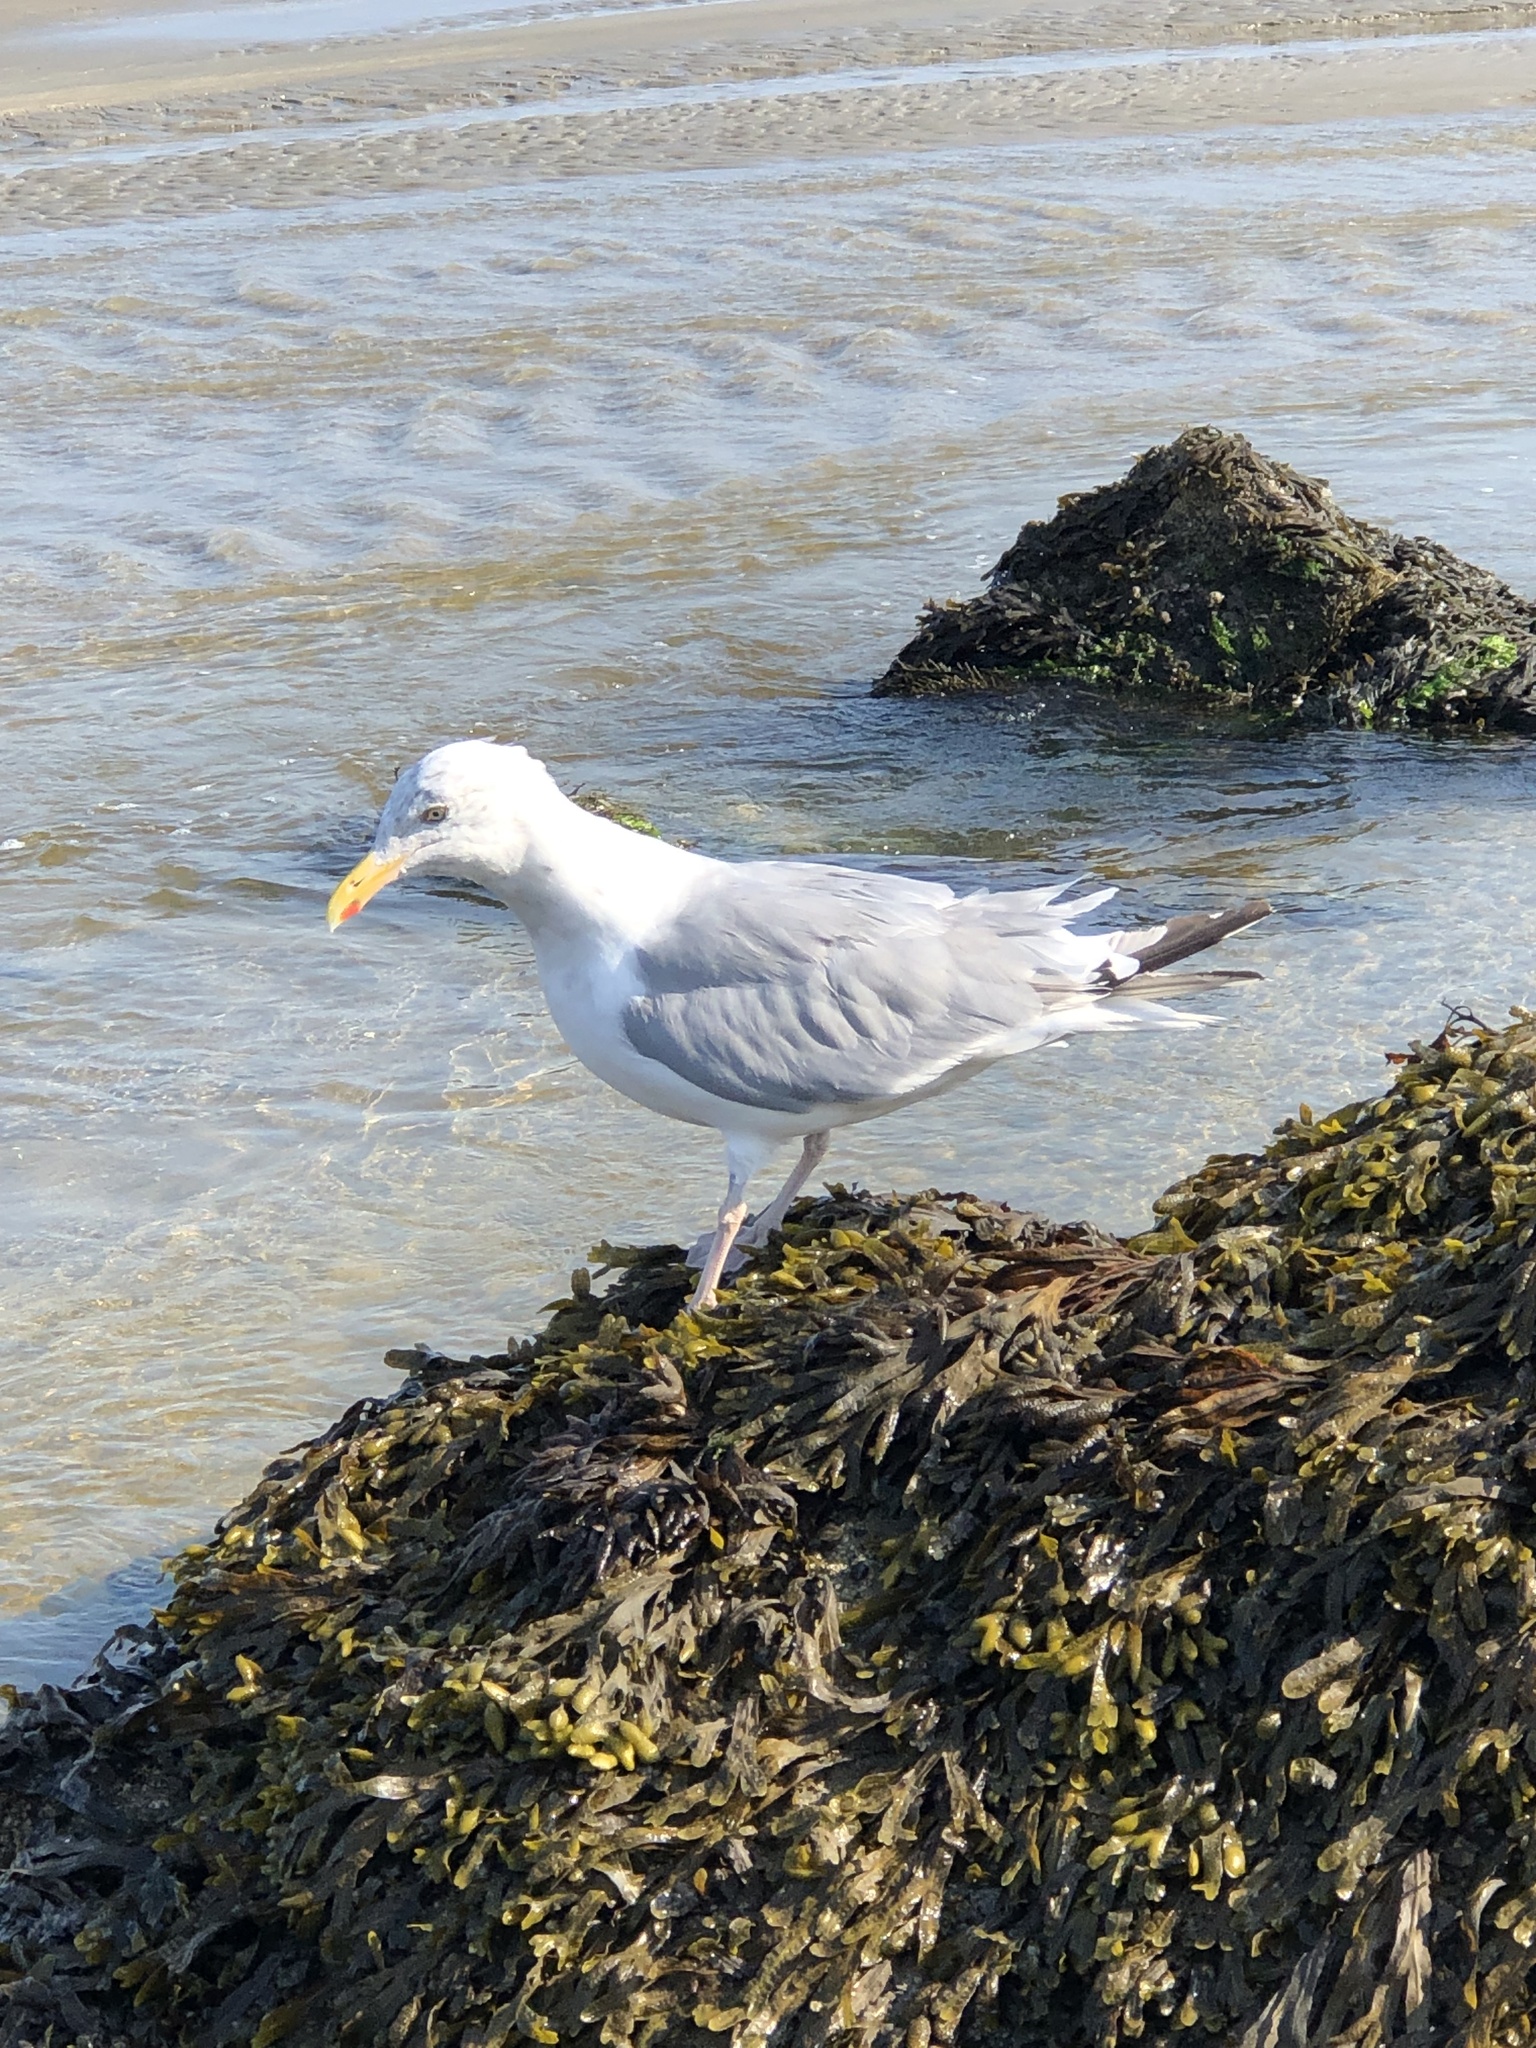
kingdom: Animalia
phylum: Chordata
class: Aves
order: Charadriiformes
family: Laridae
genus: Larus
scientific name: Larus argentatus
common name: Herring gull
